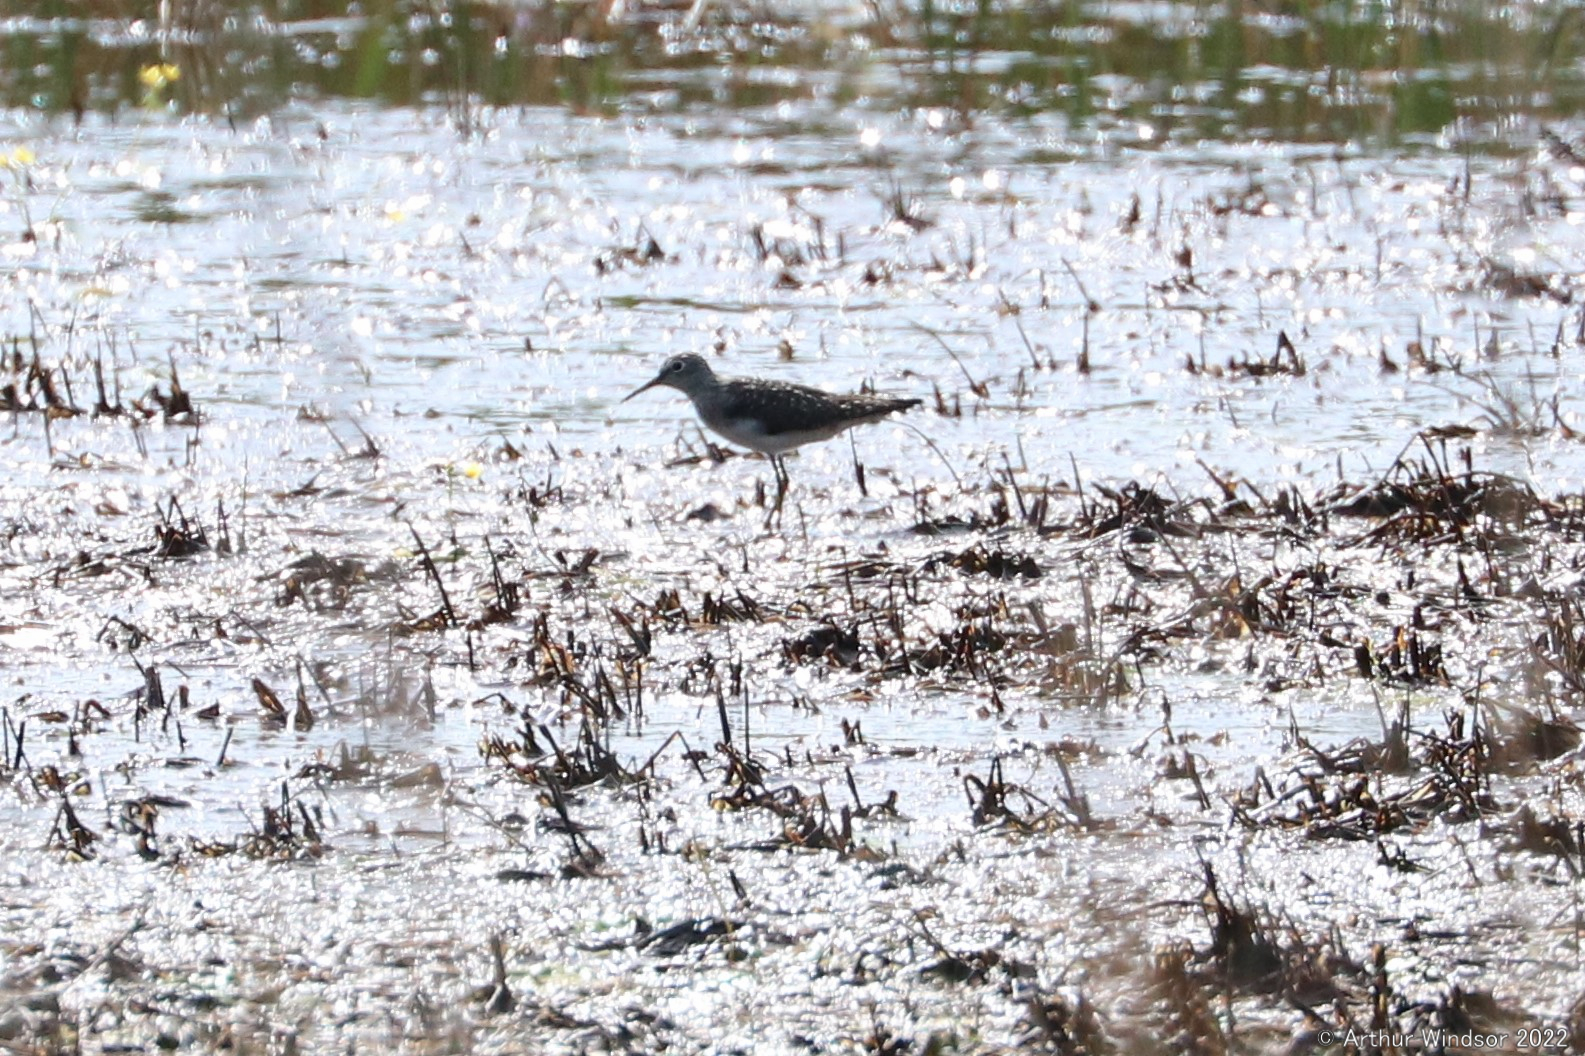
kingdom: Animalia
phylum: Chordata
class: Aves
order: Charadriiformes
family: Scolopacidae
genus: Tringa
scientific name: Tringa solitaria
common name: Solitary sandpiper
